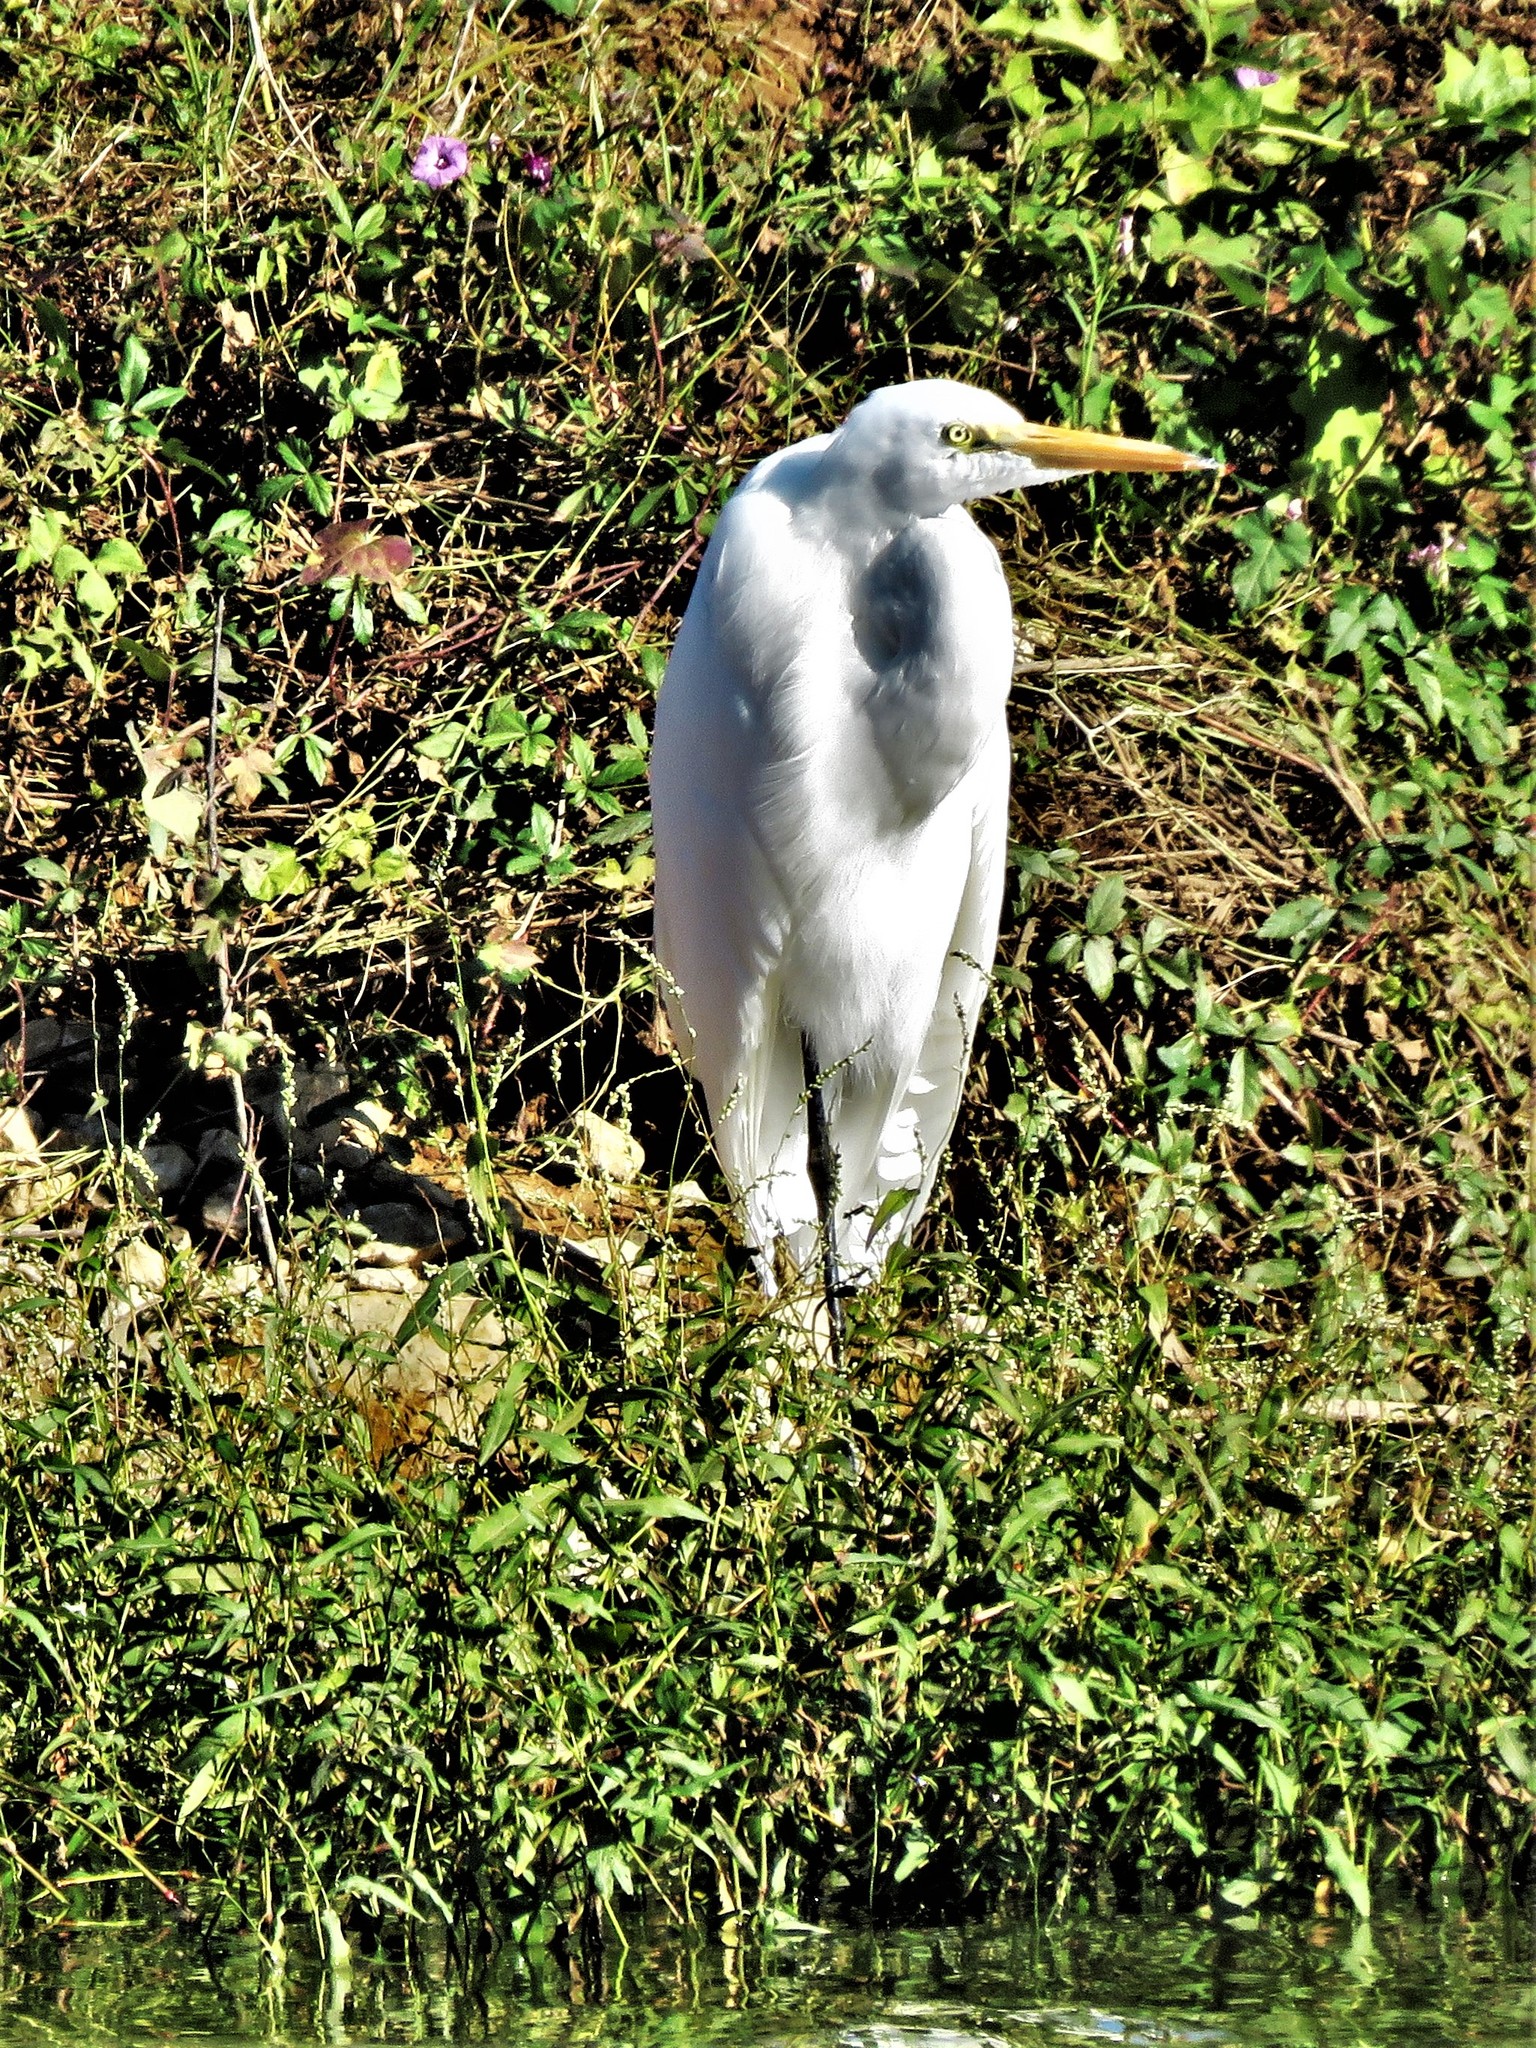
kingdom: Animalia
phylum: Chordata
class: Aves
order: Pelecaniformes
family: Ardeidae
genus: Ardea
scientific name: Ardea alba
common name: Great egret
